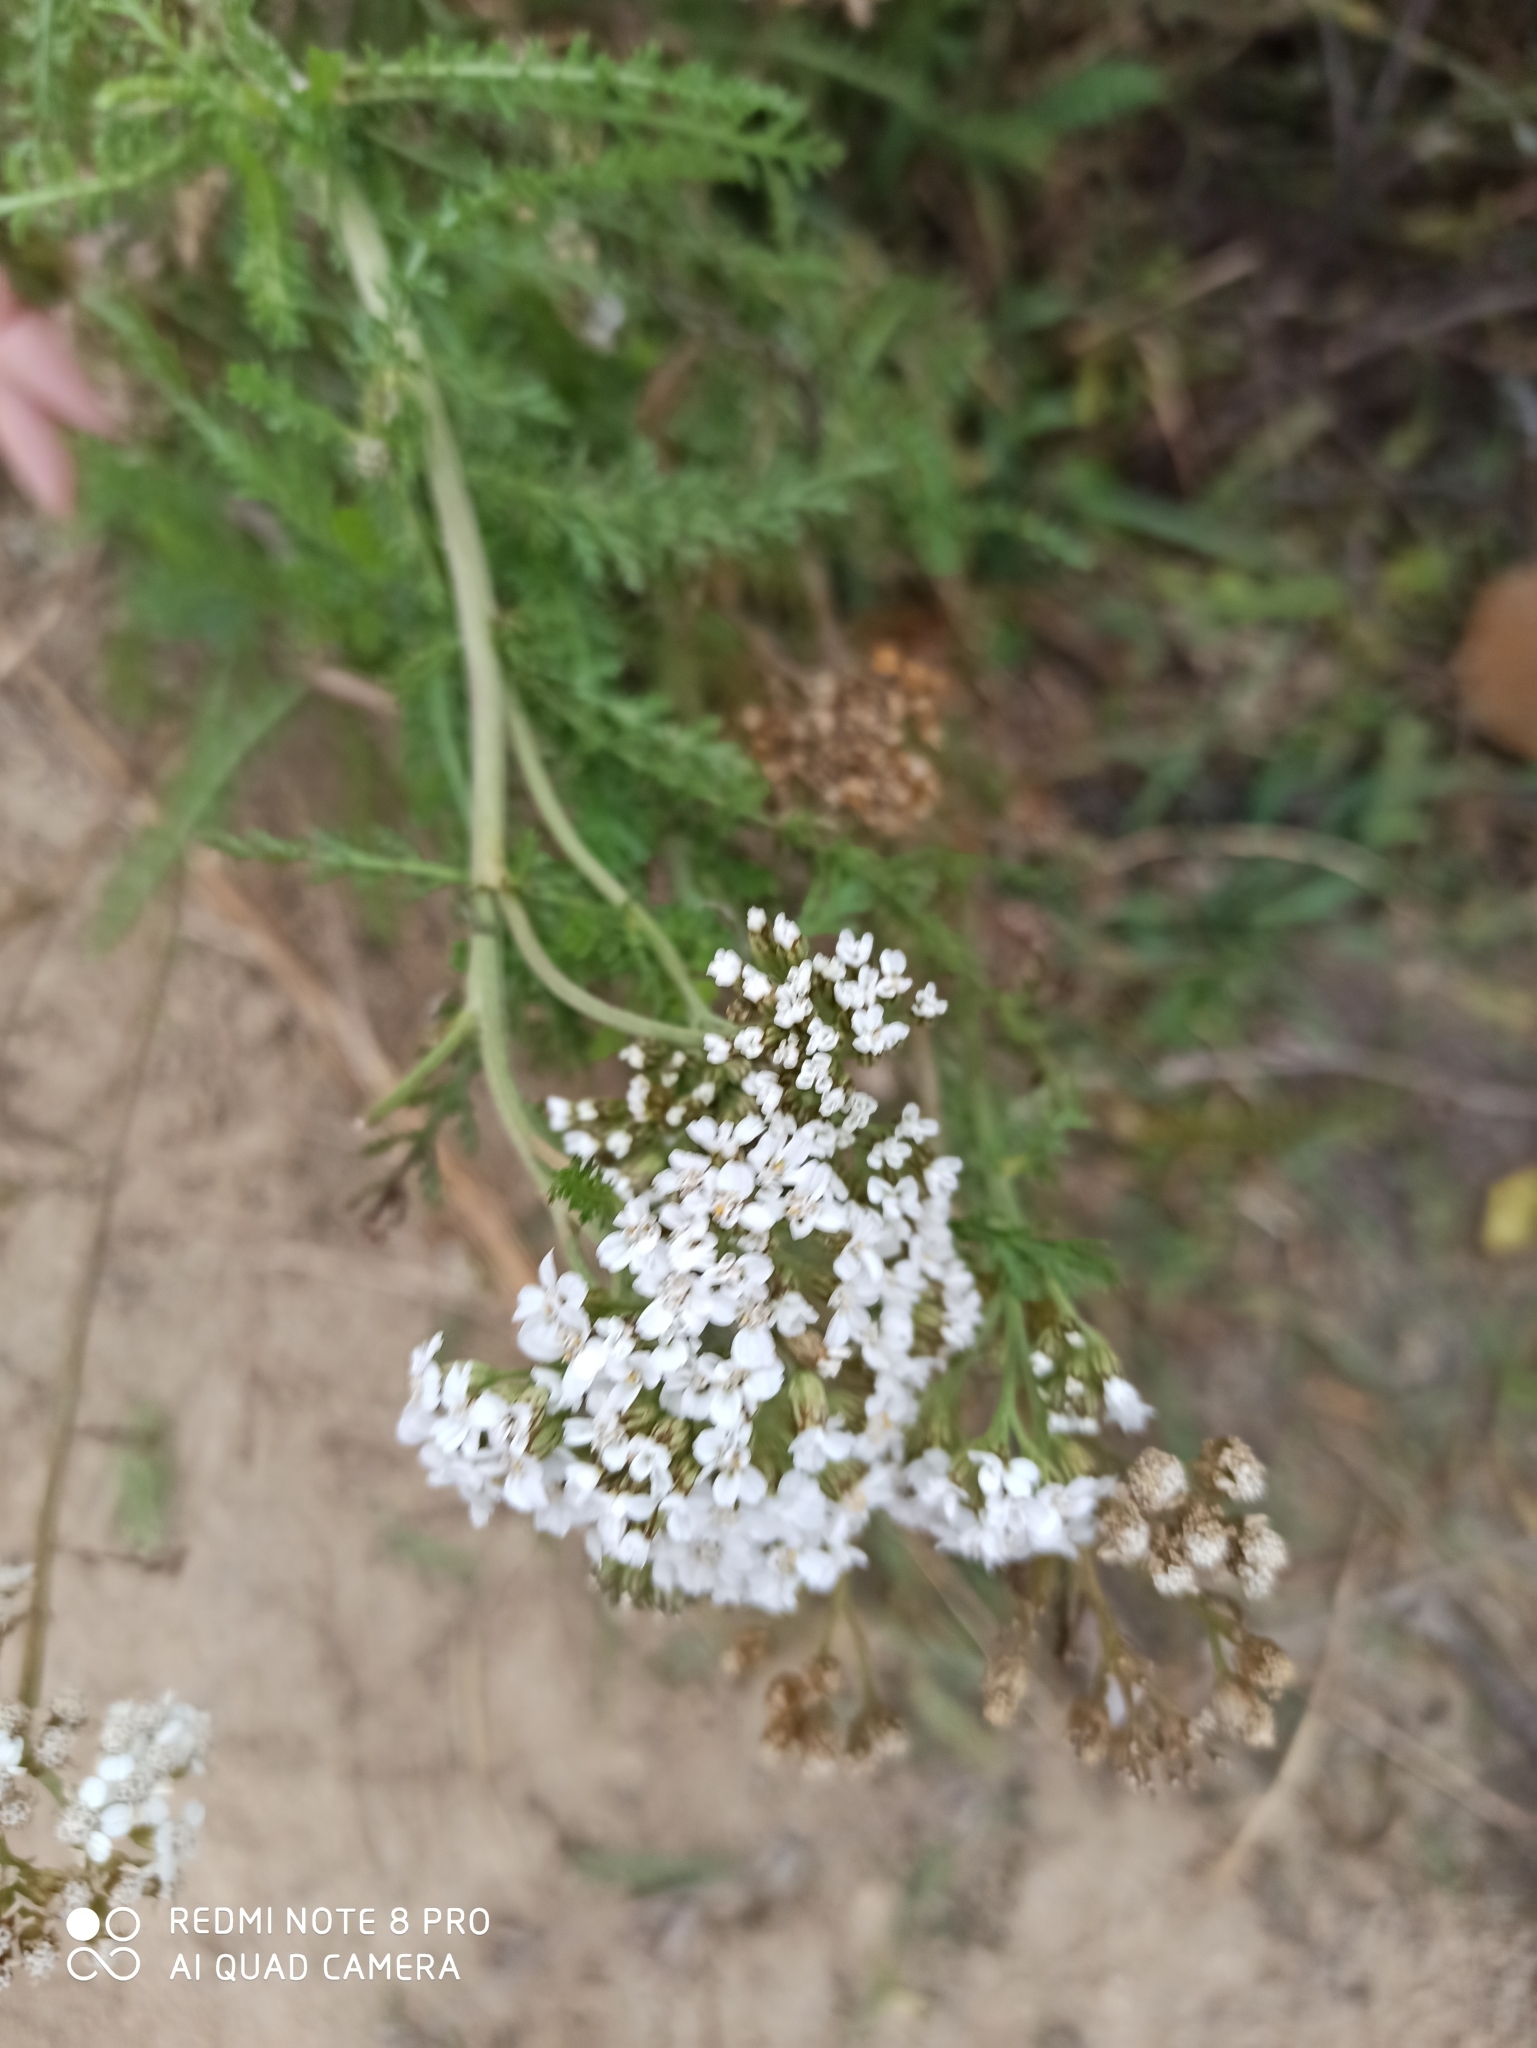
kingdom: Plantae
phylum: Tracheophyta
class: Magnoliopsida
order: Asterales
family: Asteraceae
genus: Achillea
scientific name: Achillea millefolium
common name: Yarrow
